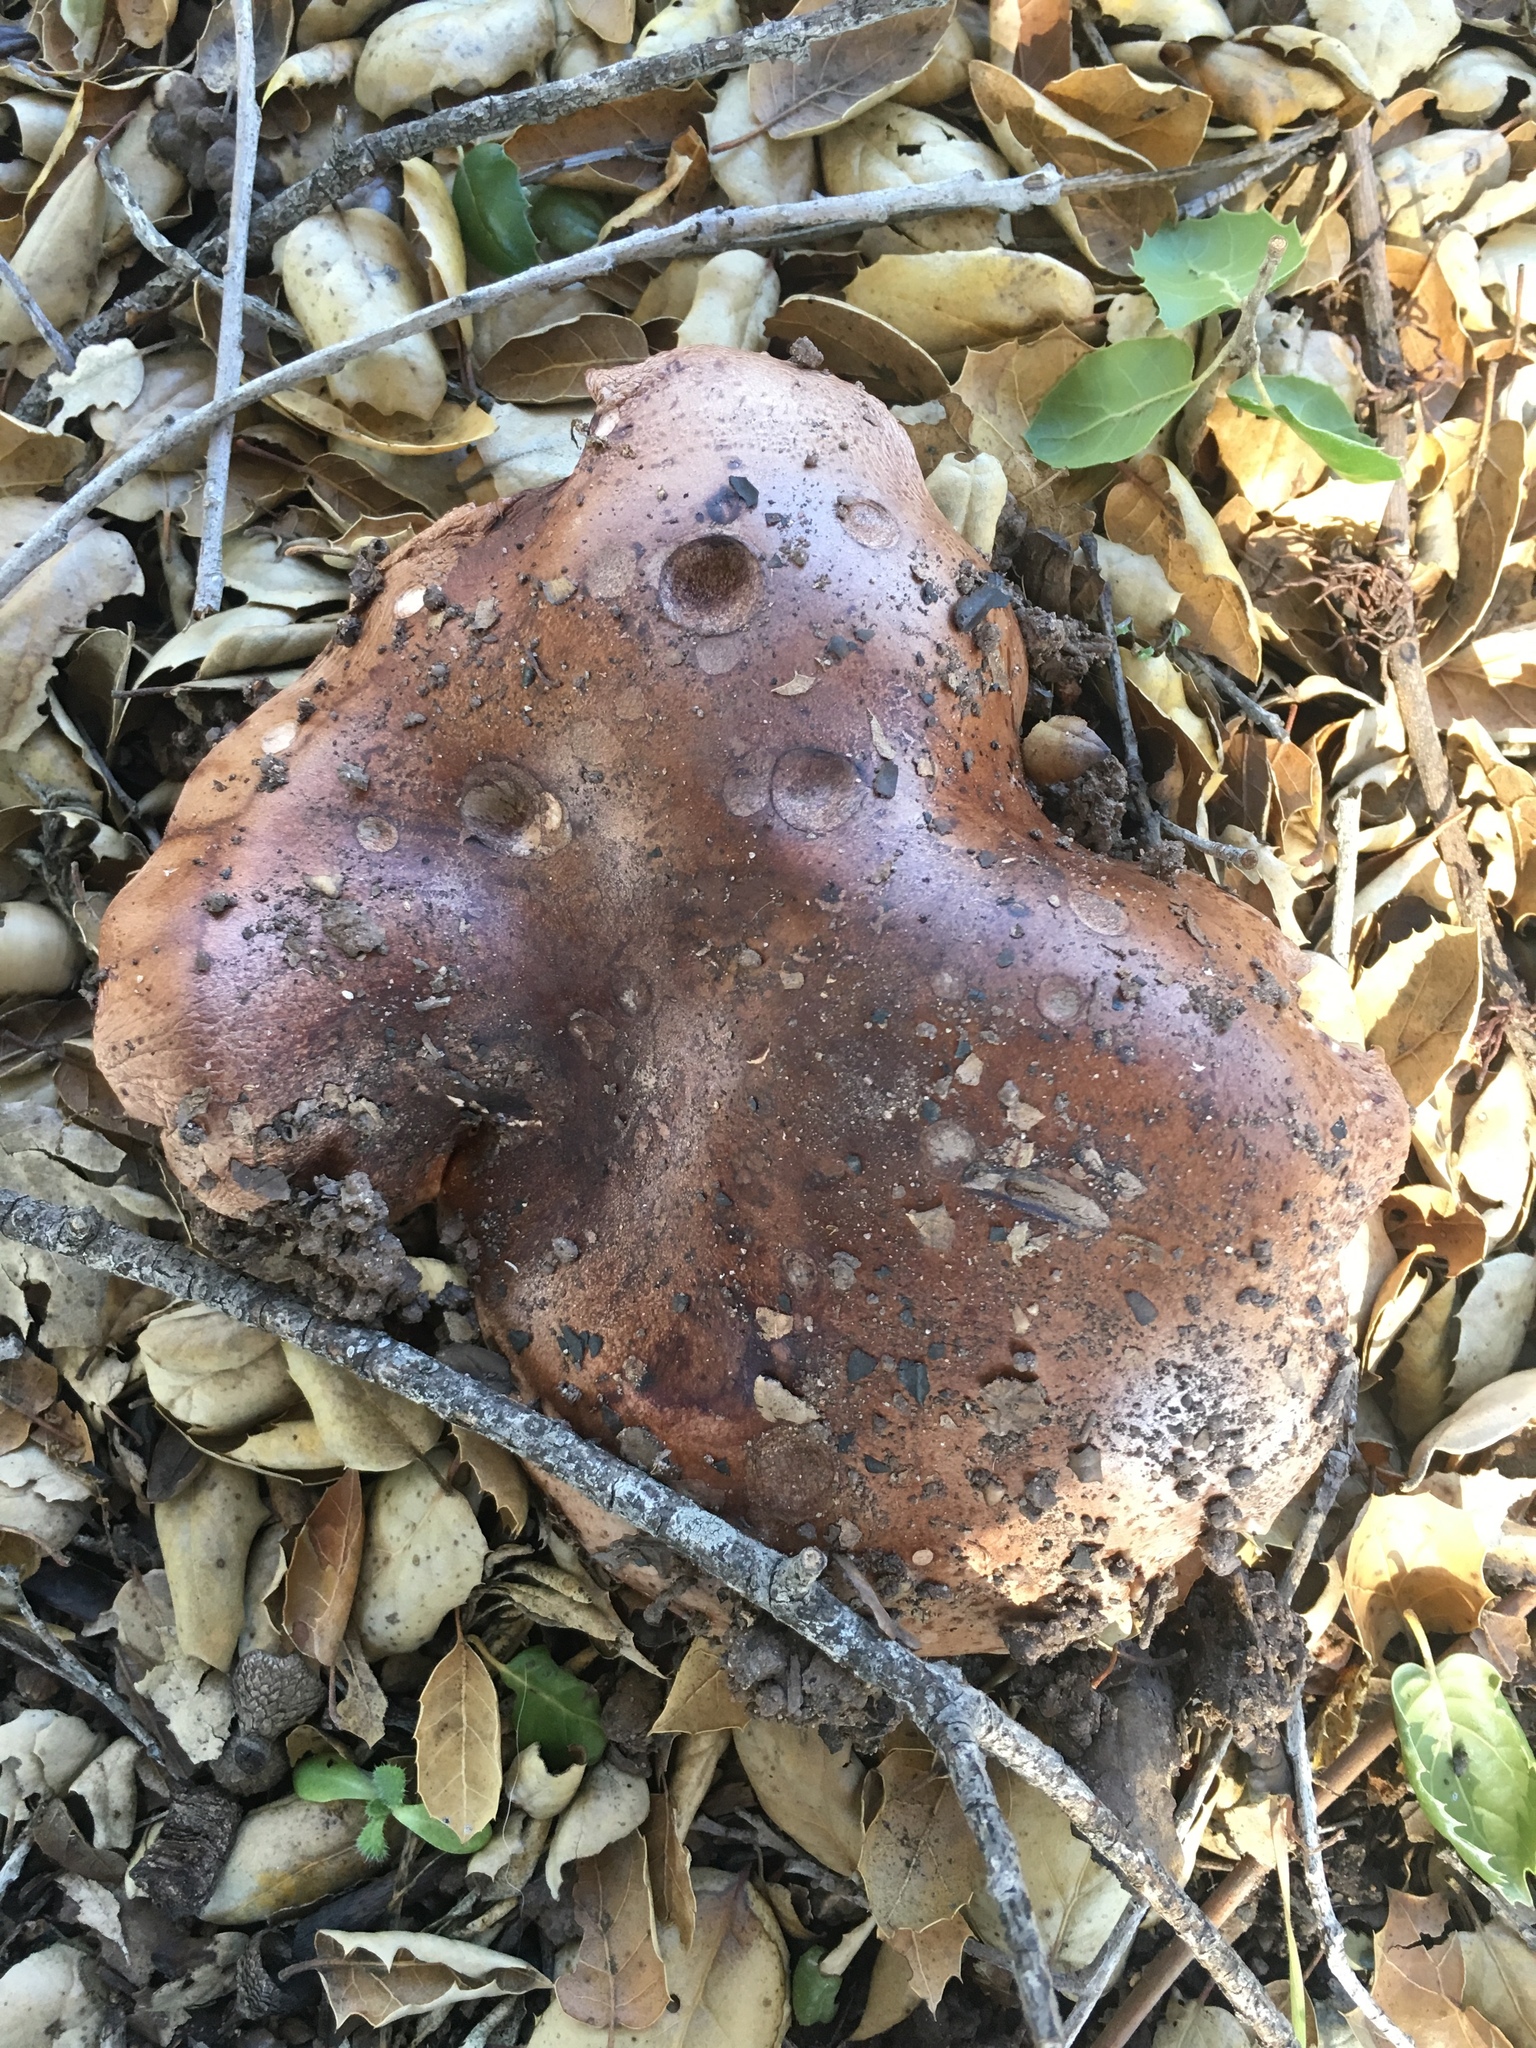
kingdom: Fungi
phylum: Basidiomycota
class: Agaricomycetes
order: Agaricales
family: Tricholomataceae
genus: Melanoleuca
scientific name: Melanoleuca dryophila
